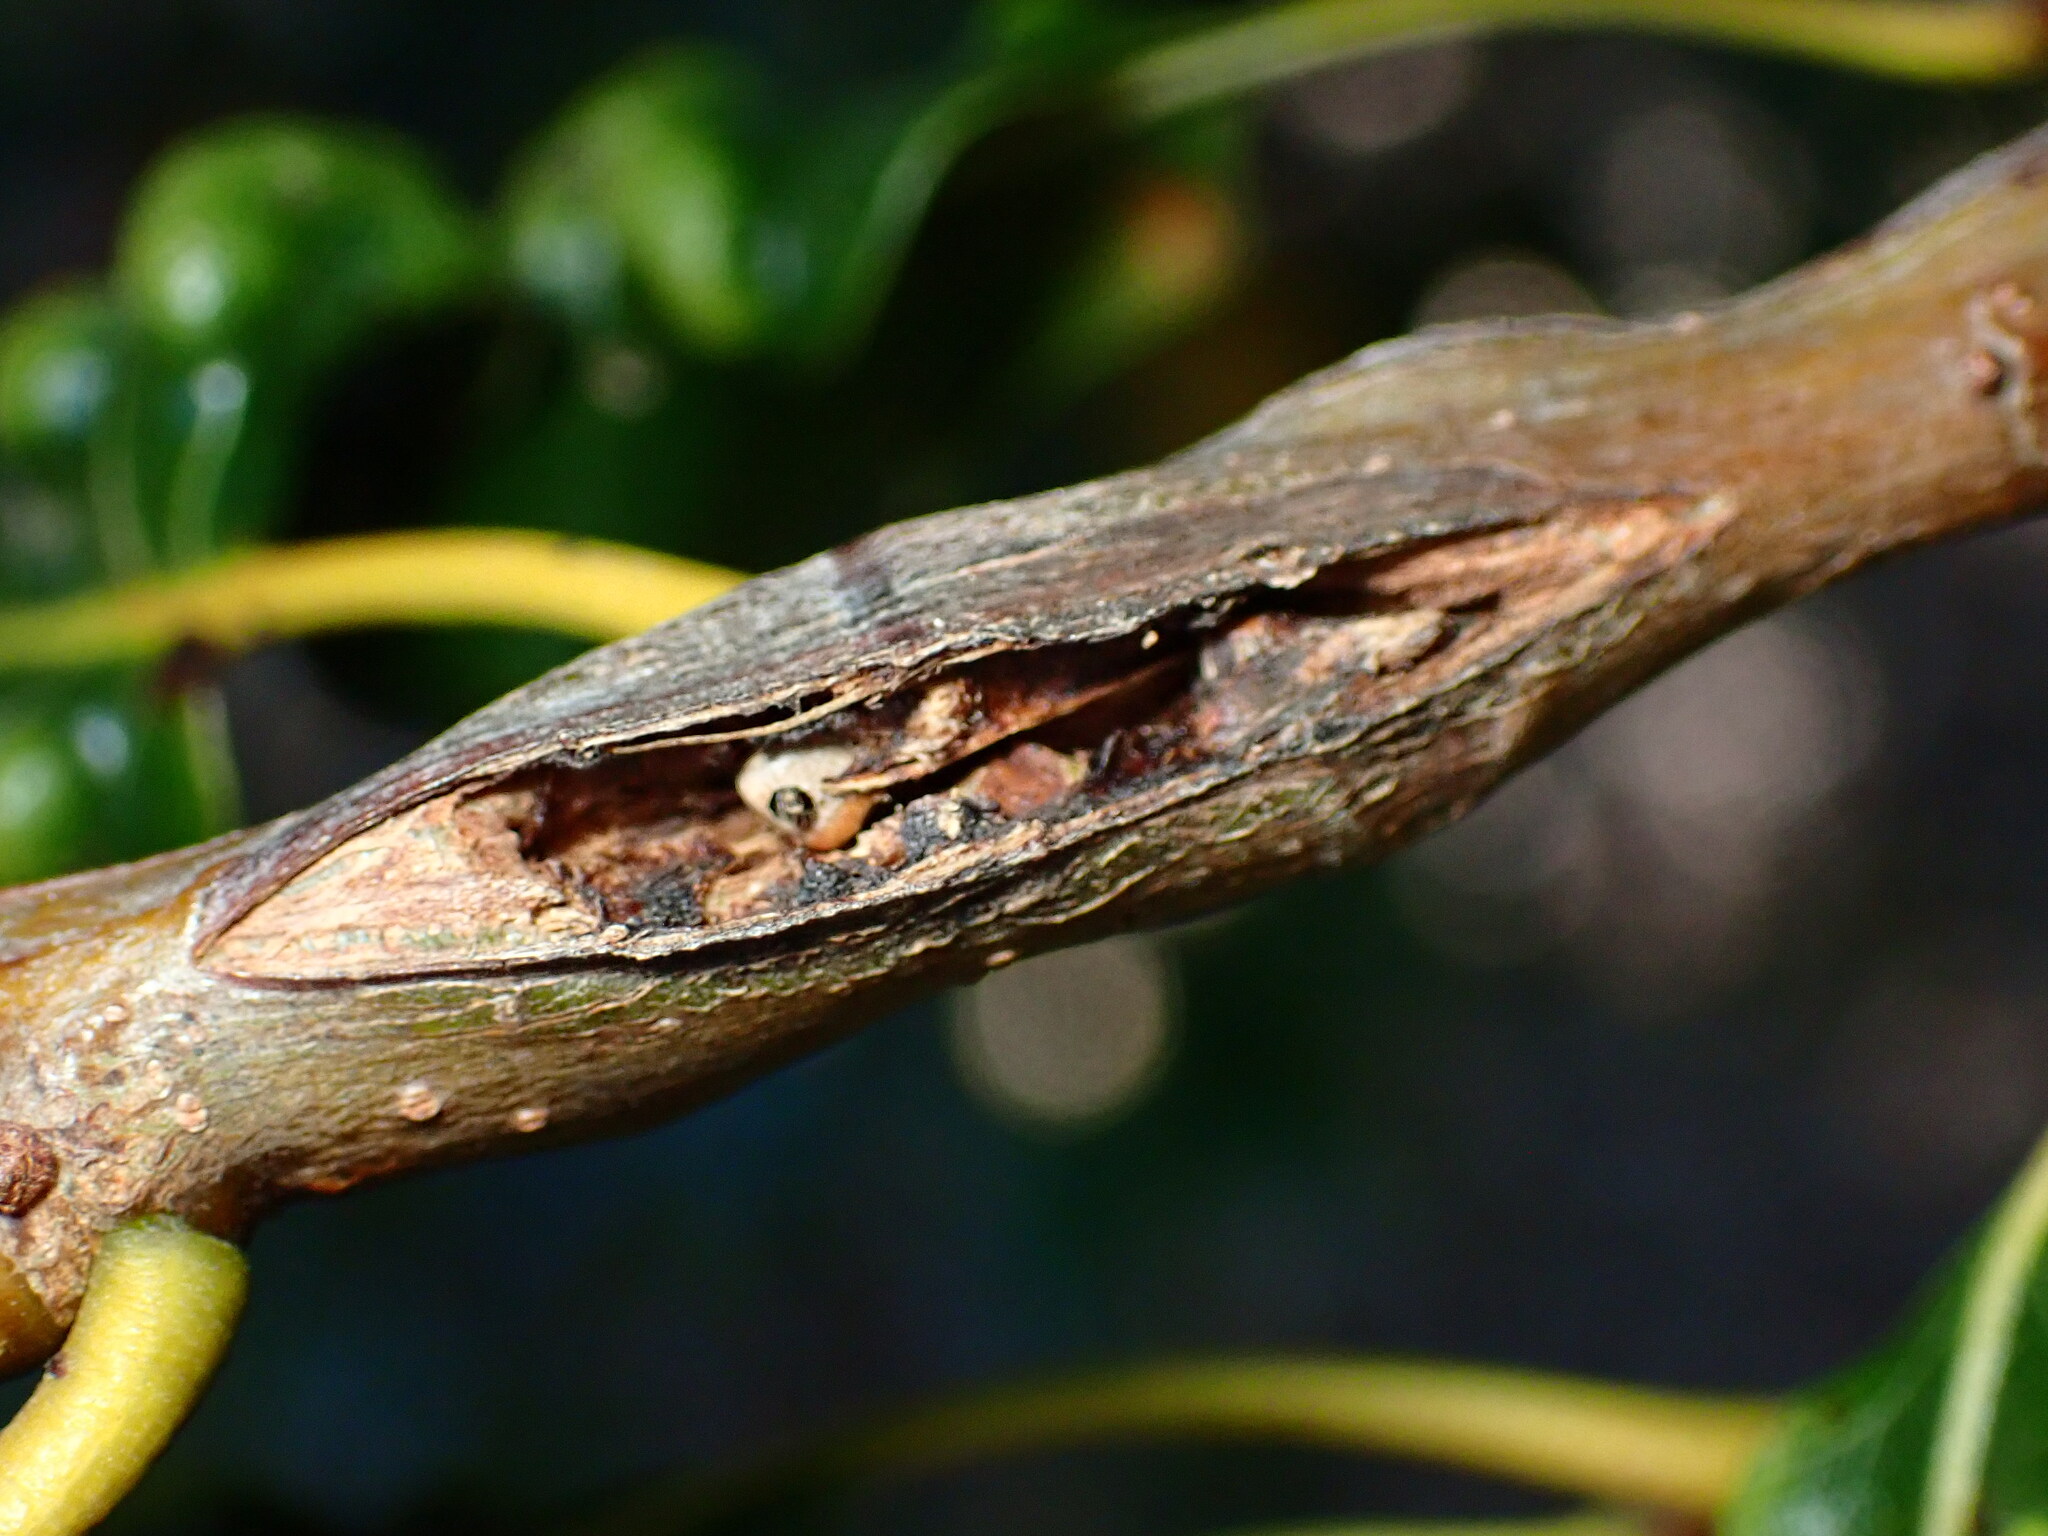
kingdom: Animalia
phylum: Arthropoda
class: Insecta
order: Hymenoptera
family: Cynipidae
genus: Callirhytis
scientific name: Callirhytis
